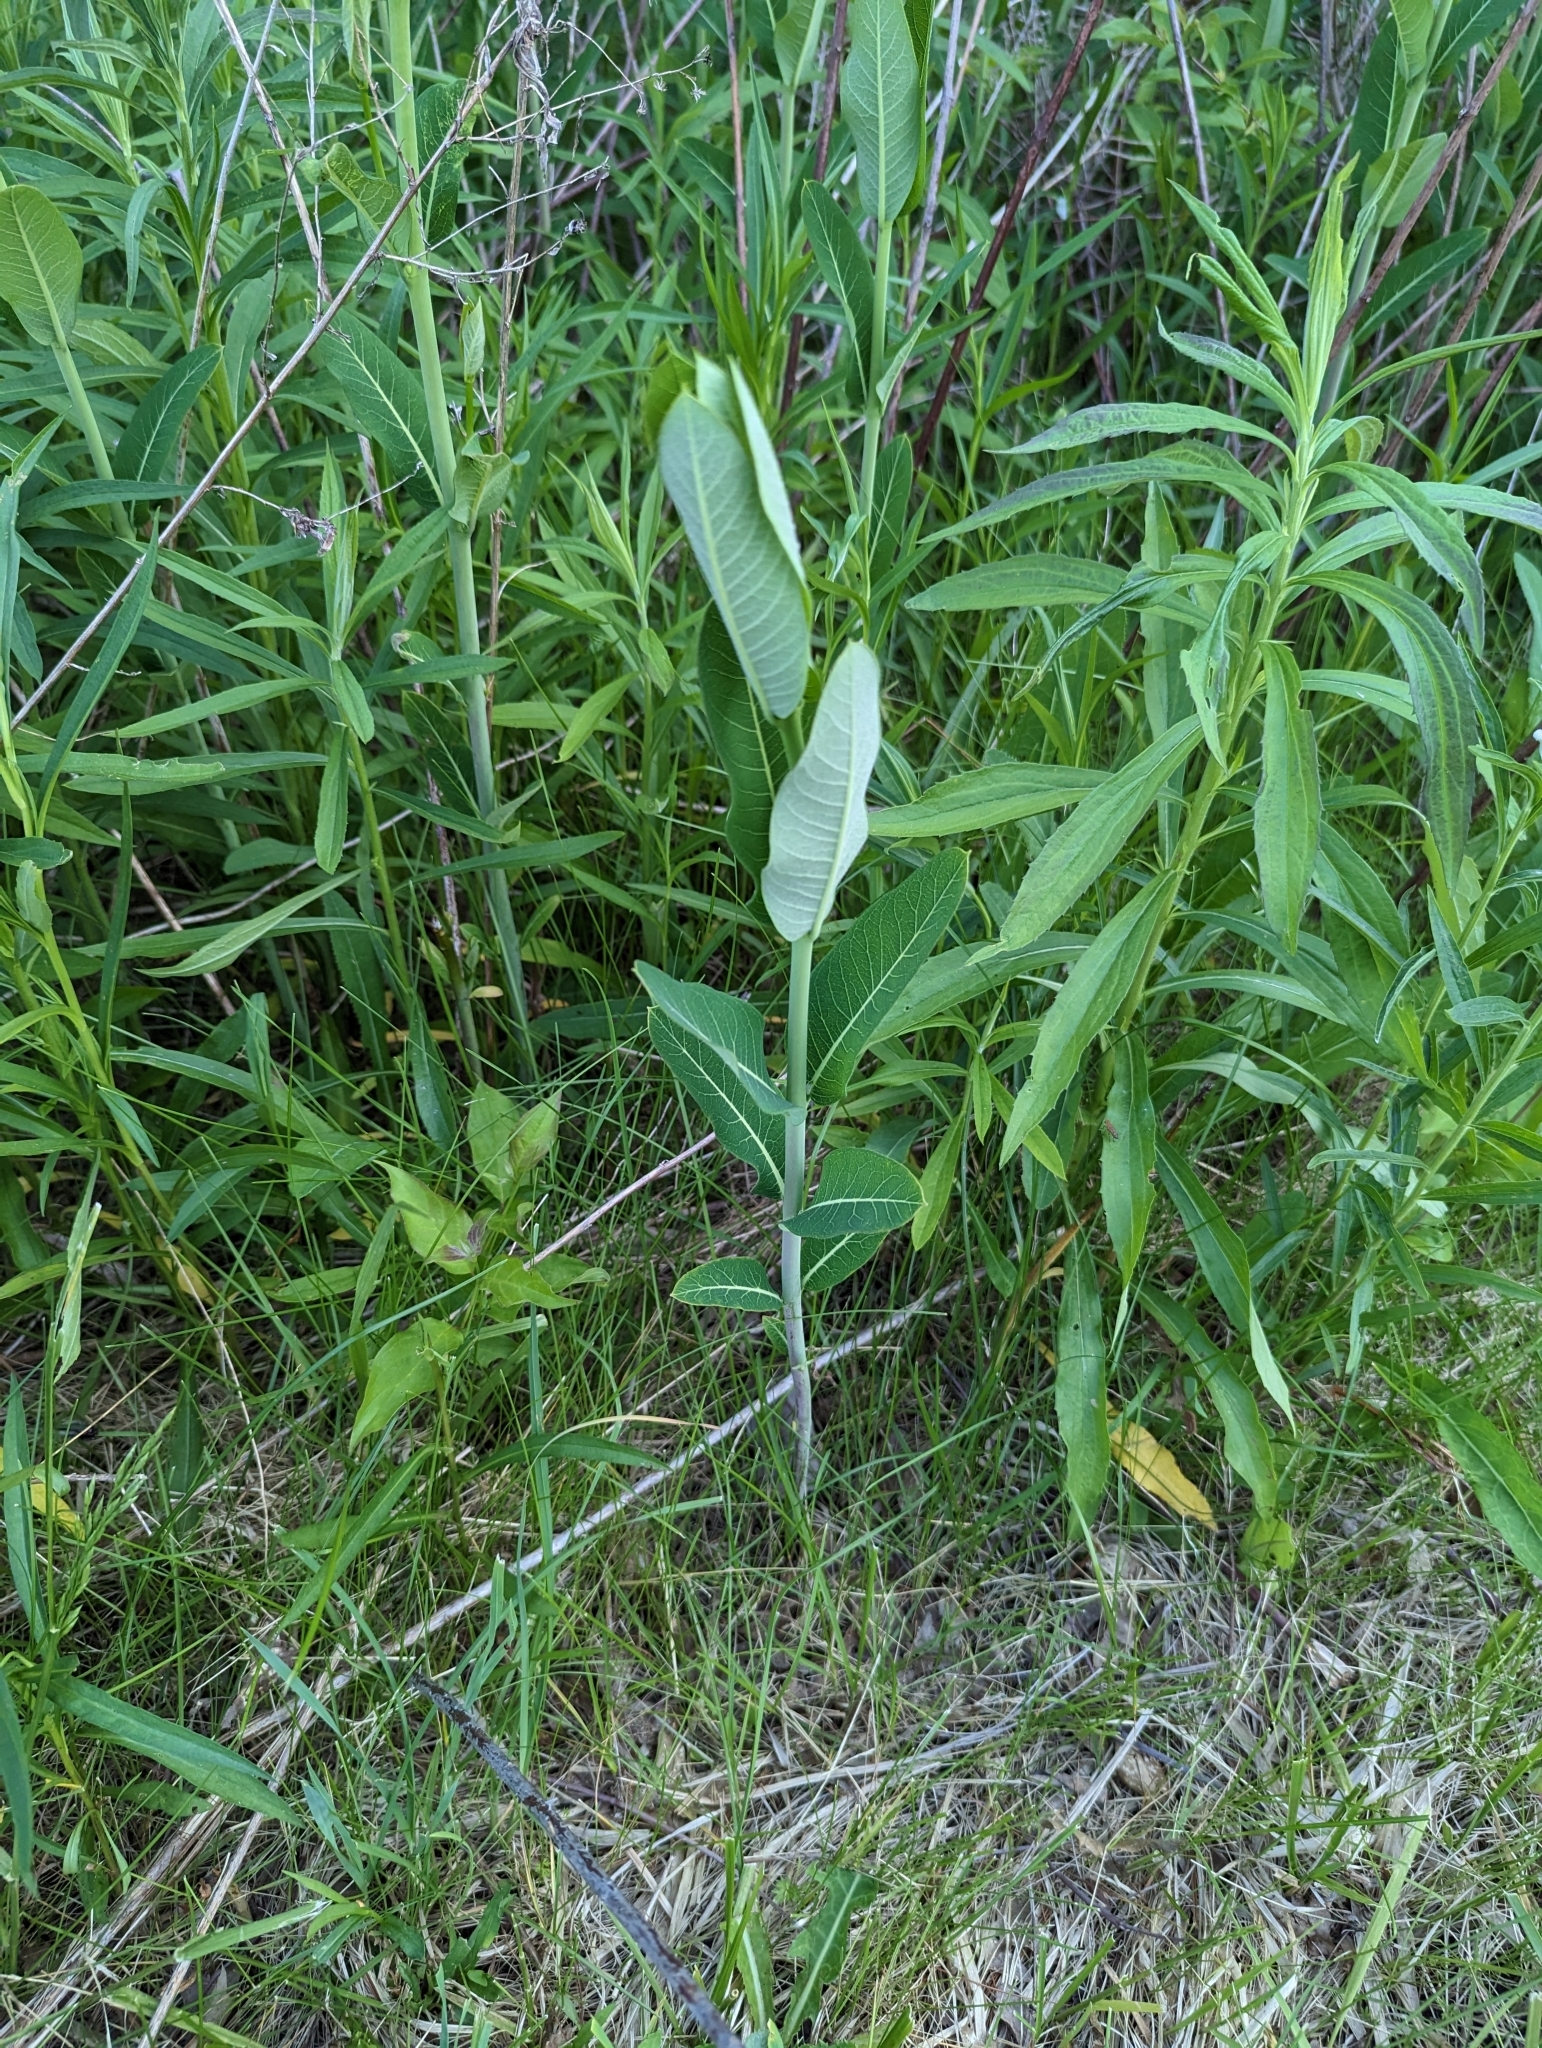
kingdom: Plantae
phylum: Tracheophyta
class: Magnoliopsida
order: Gentianales
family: Apocynaceae
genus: Apocynum
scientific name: Apocynum cannabinum
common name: Hemp dogbane
